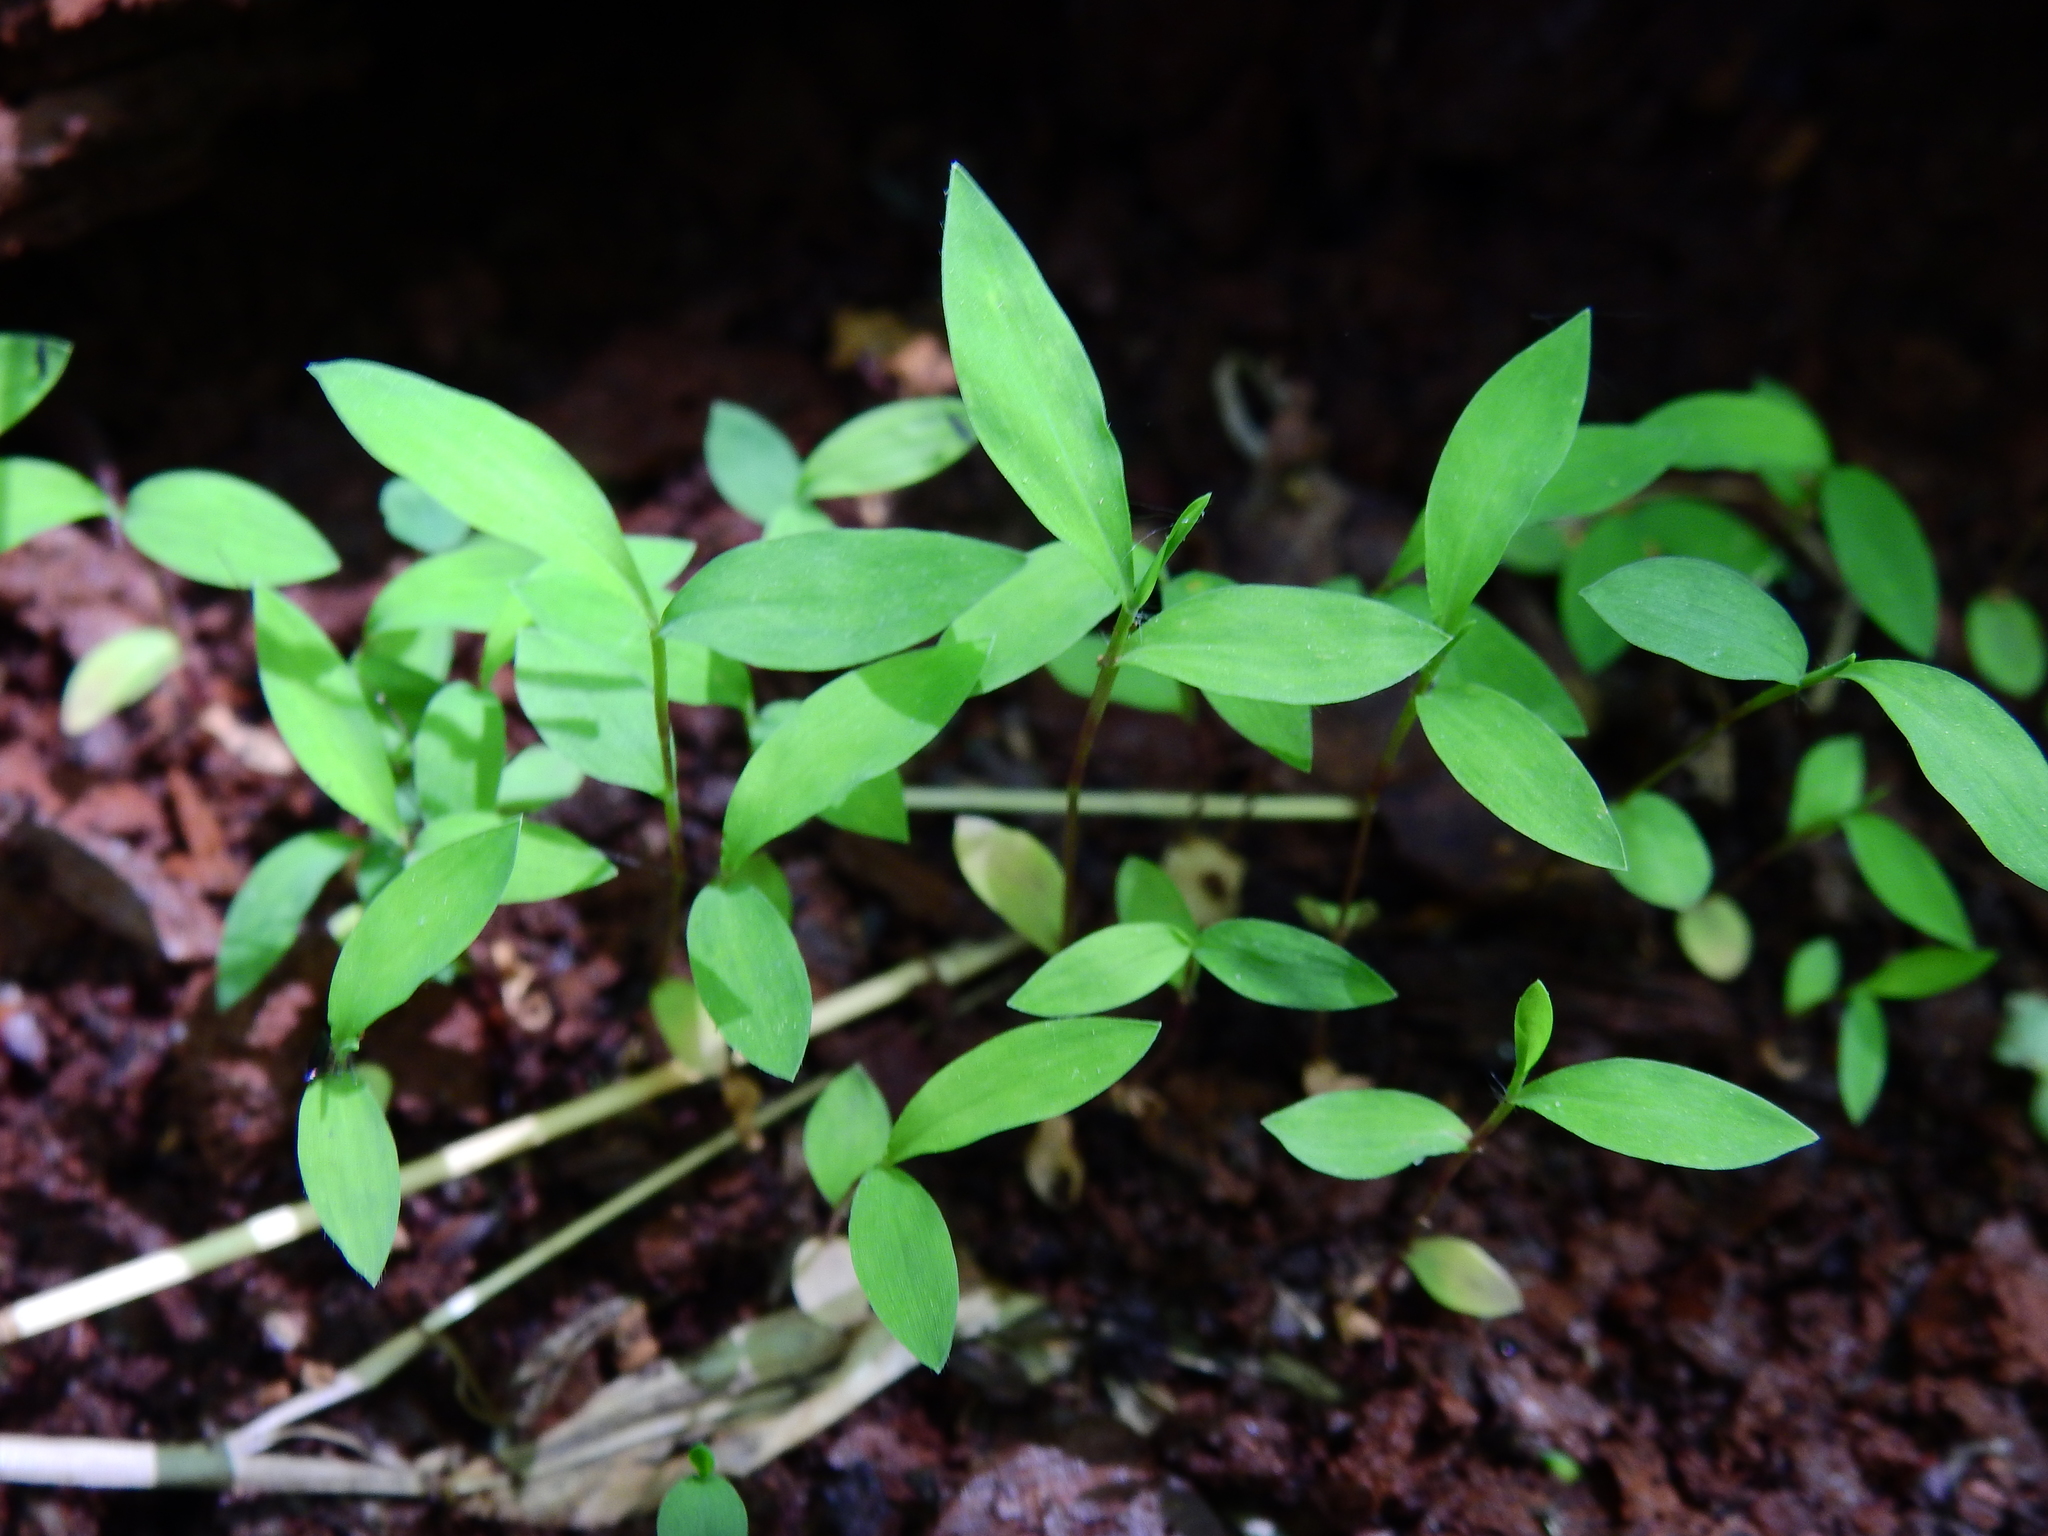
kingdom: Plantae
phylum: Tracheophyta
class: Liliopsida
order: Poales
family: Poaceae
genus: Microstegium
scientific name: Microstegium vimineum
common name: Japanese stiltgrass
